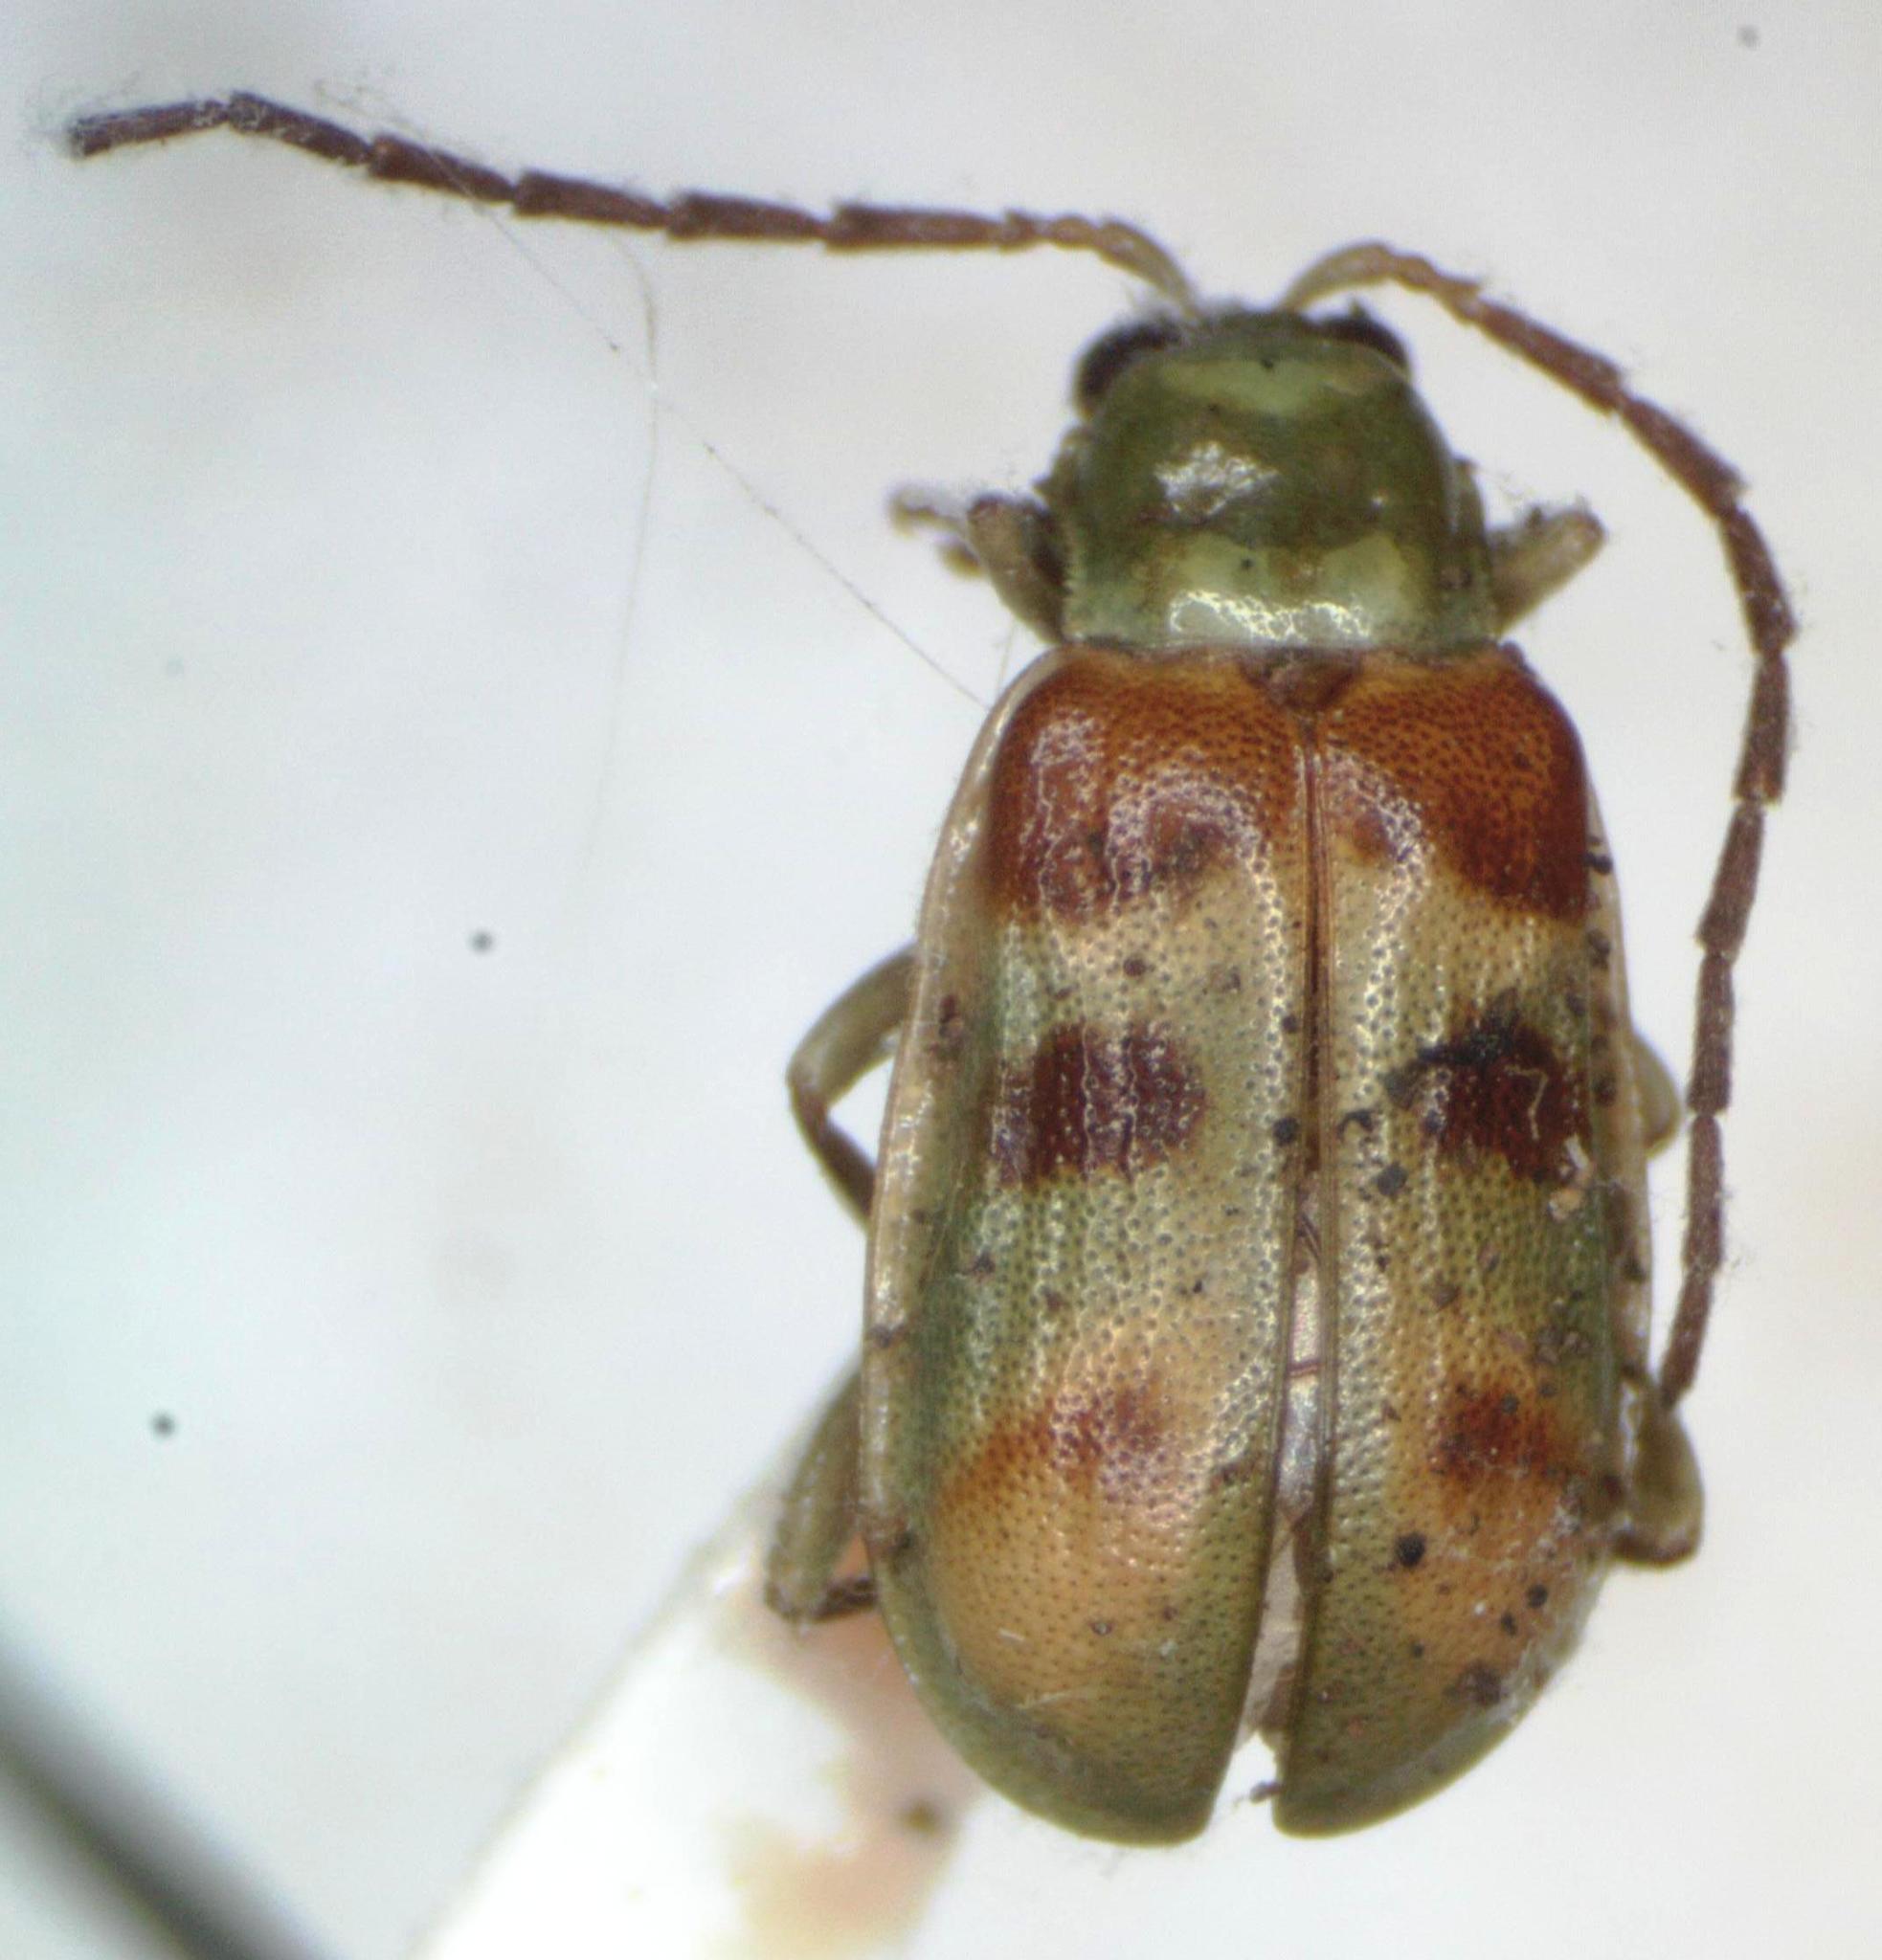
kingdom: Animalia
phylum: Arthropoda
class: Insecta
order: Coleoptera
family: Chrysomelidae
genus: Diabrotica
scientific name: Diabrotica viridula
